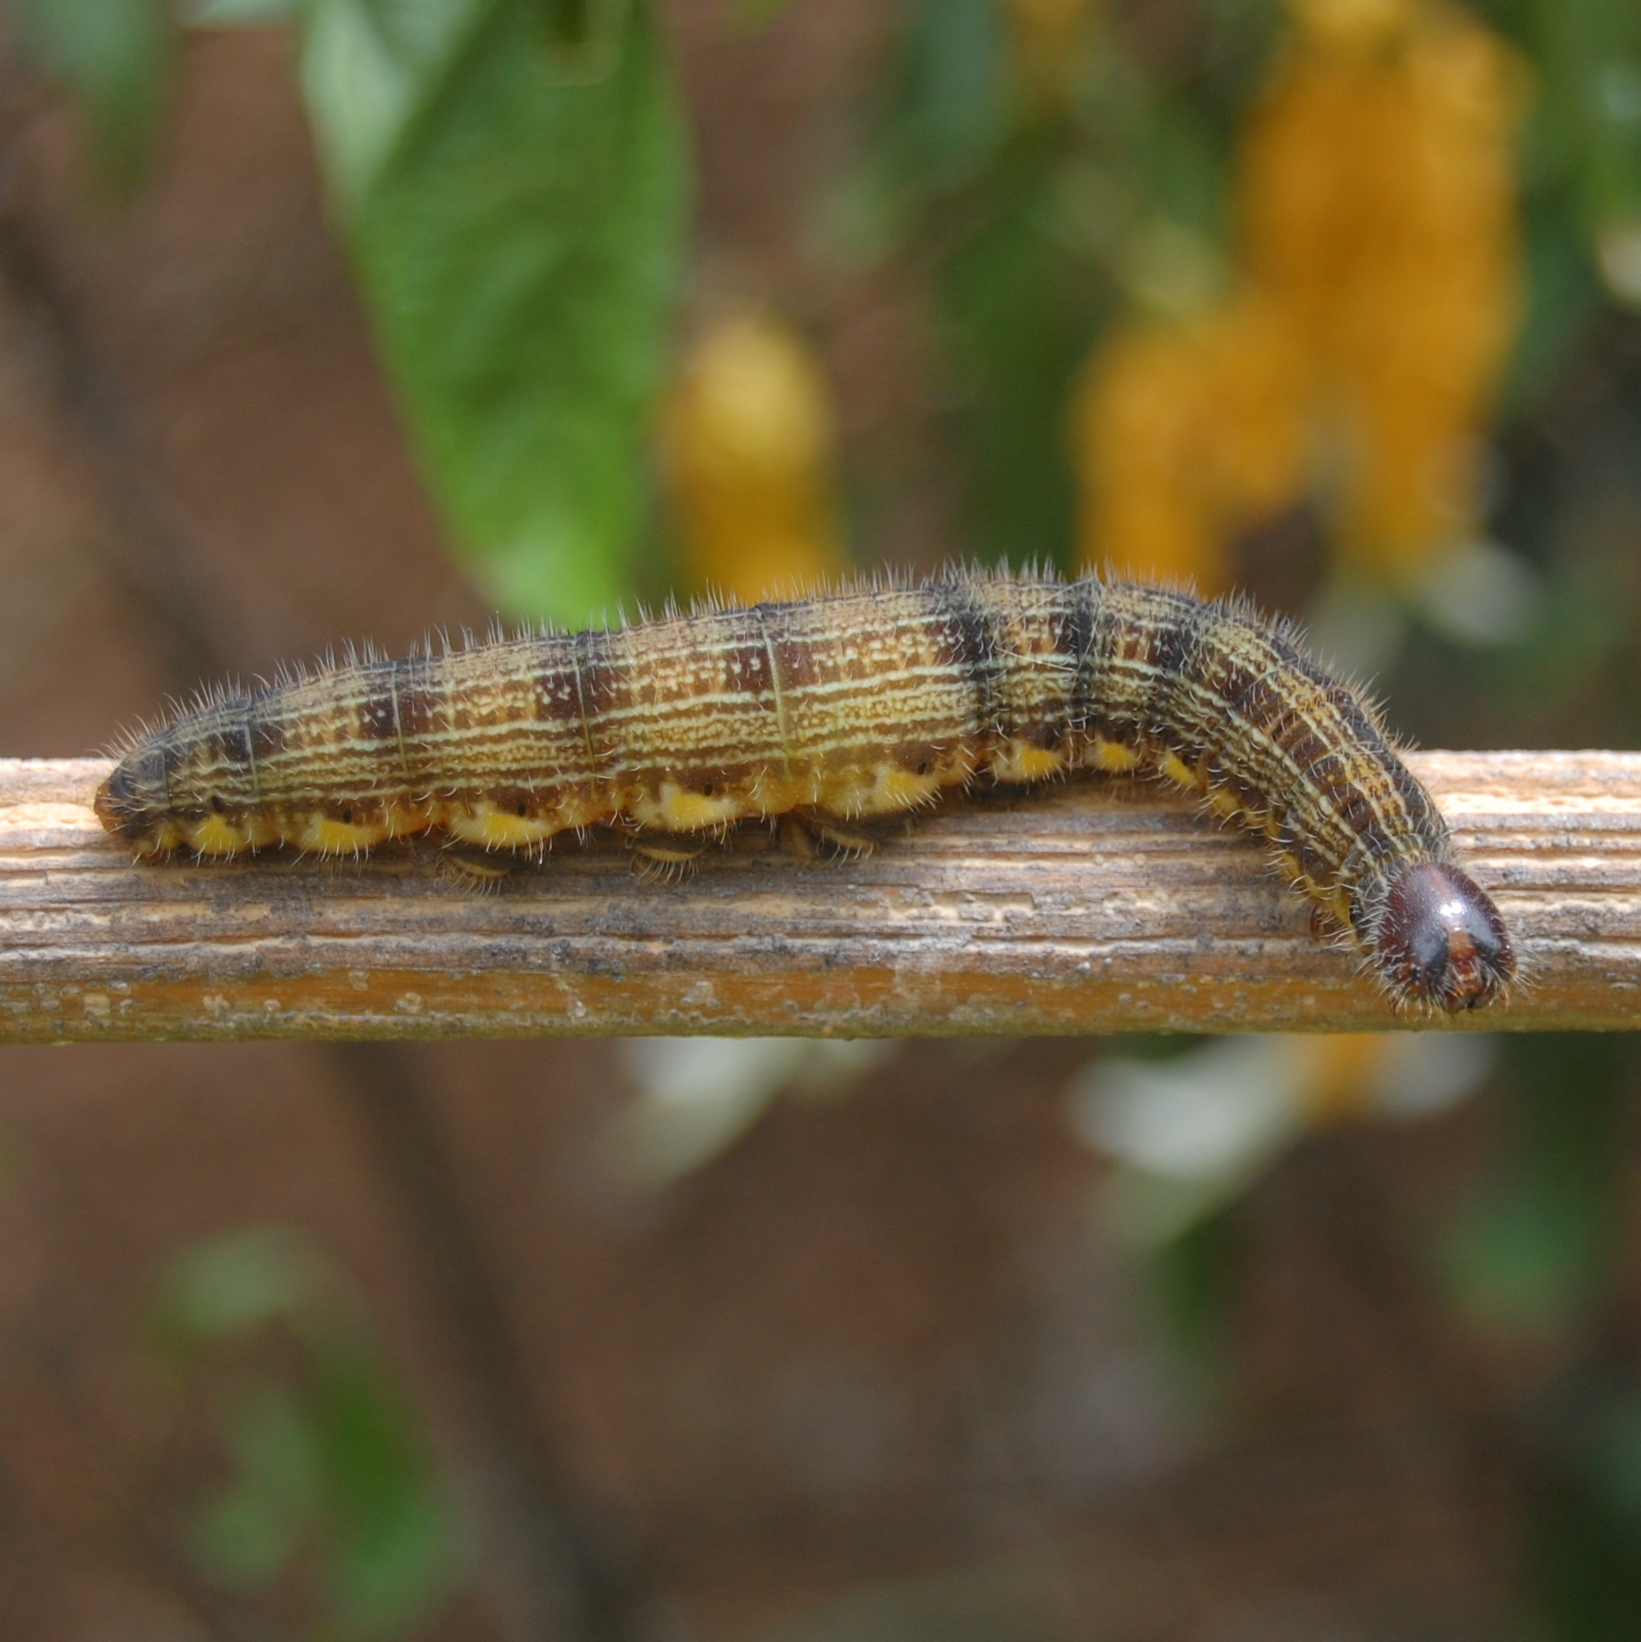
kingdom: Animalia
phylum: Arthropoda
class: Insecta
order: Lepidoptera
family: Nymphalidae
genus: Brassolis
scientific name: Brassolis astyra
